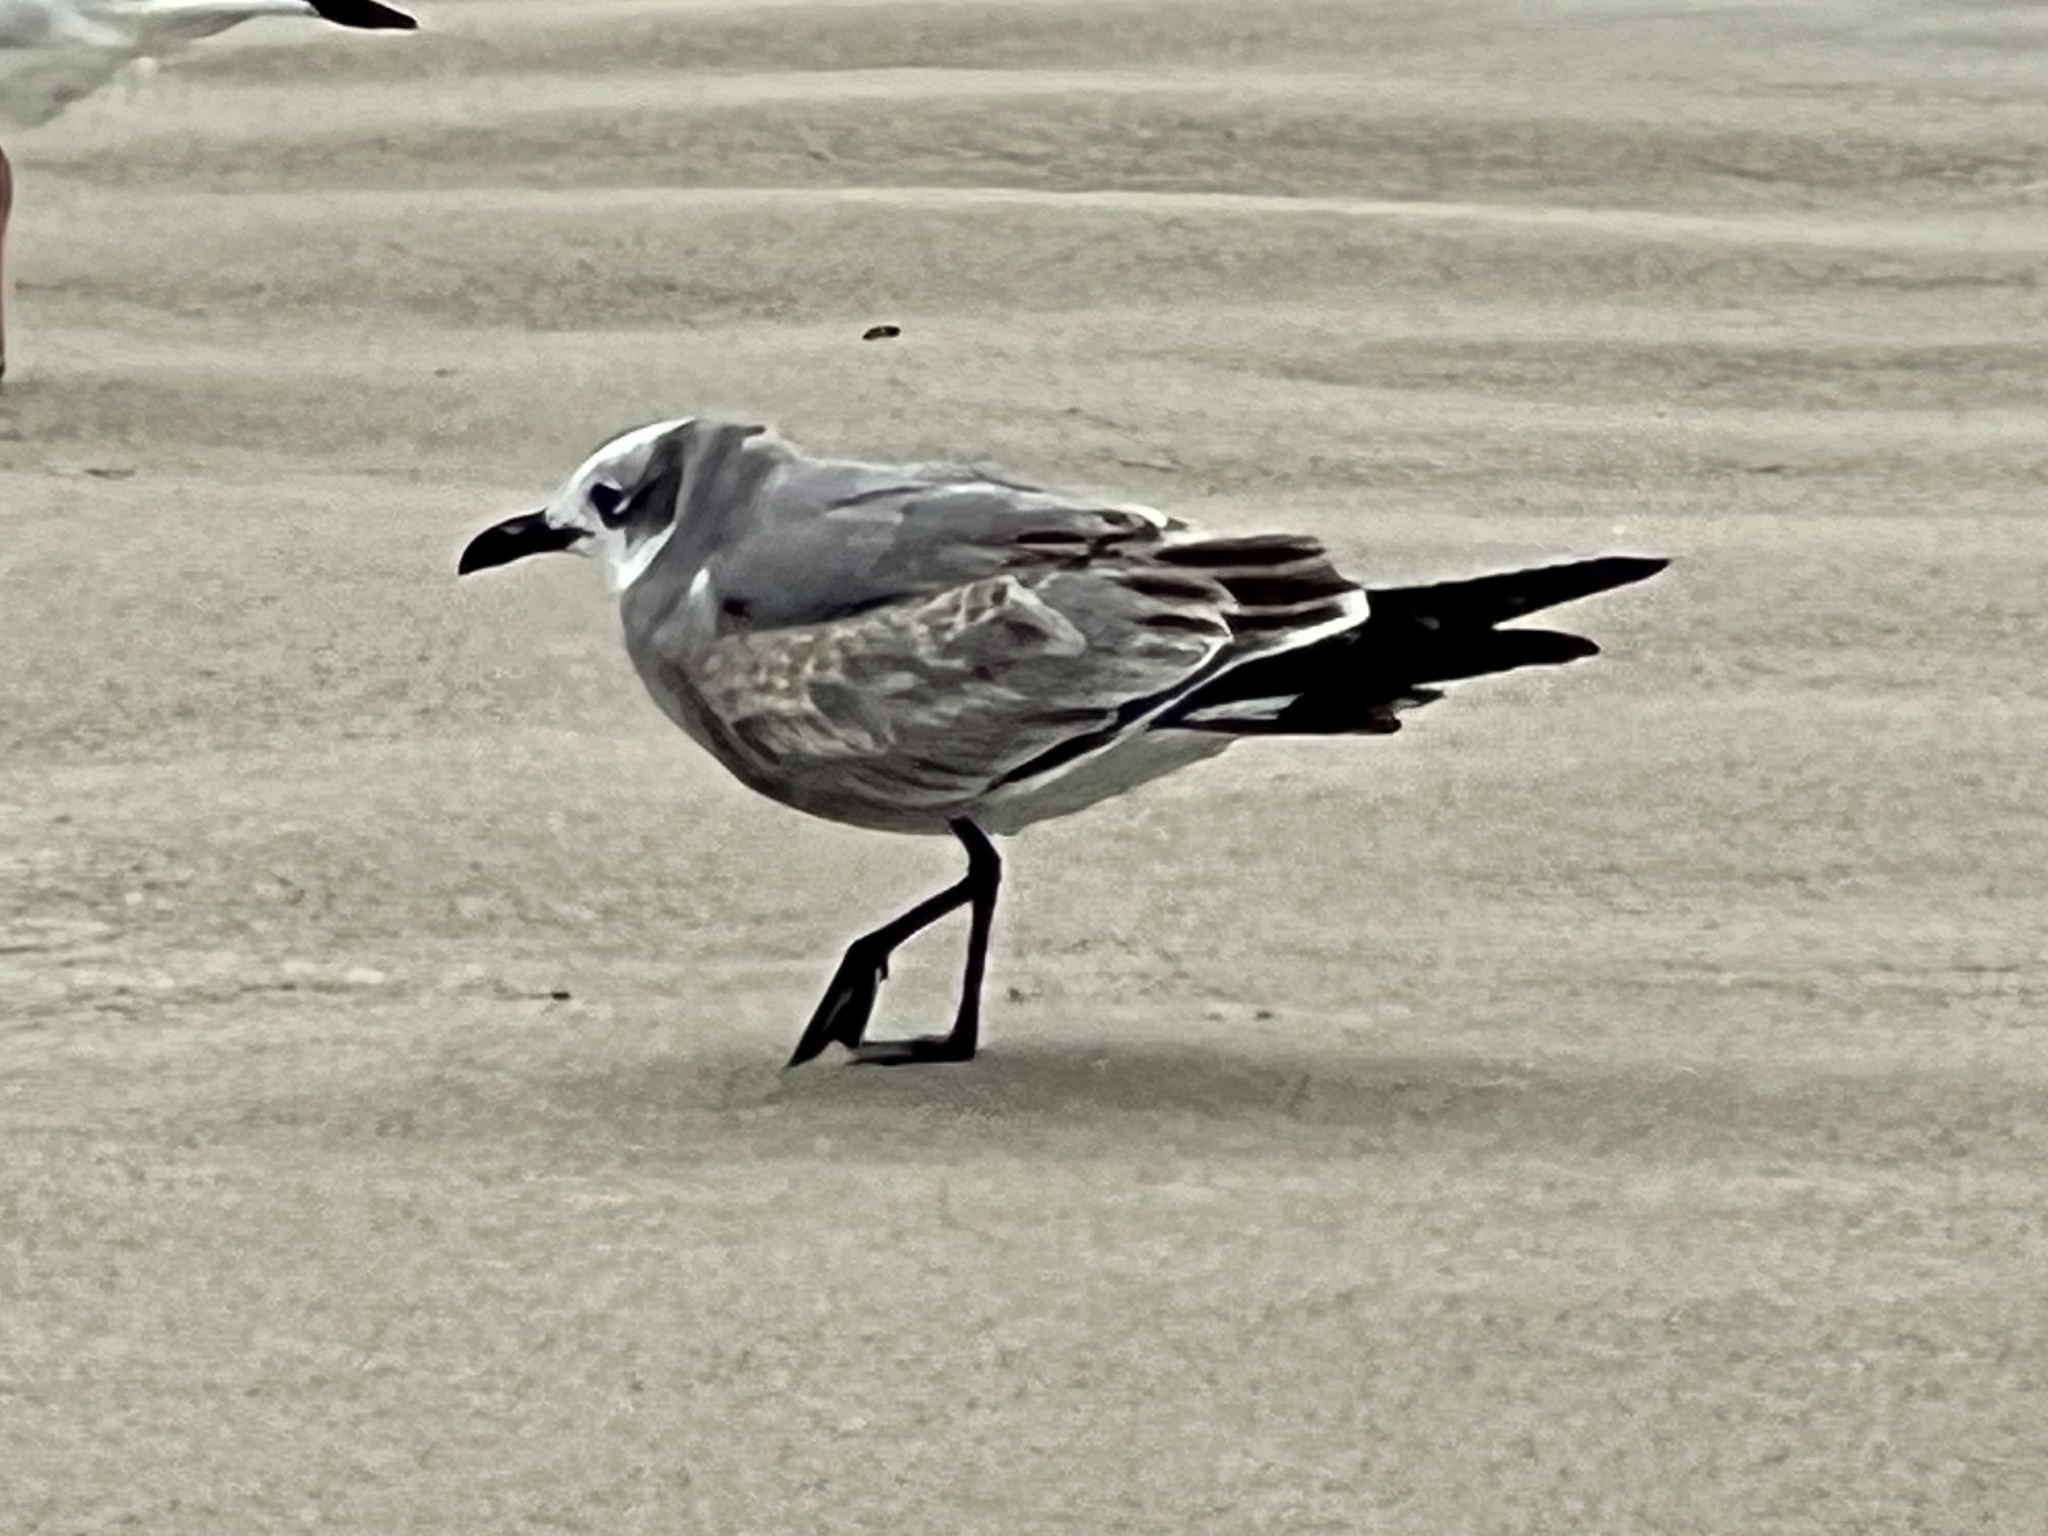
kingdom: Animalia
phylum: Chordata
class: Aves
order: Charadriiformes
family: Laridae
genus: Leucophaeus
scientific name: Leucophaeus atricilla
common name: Laughing gull
